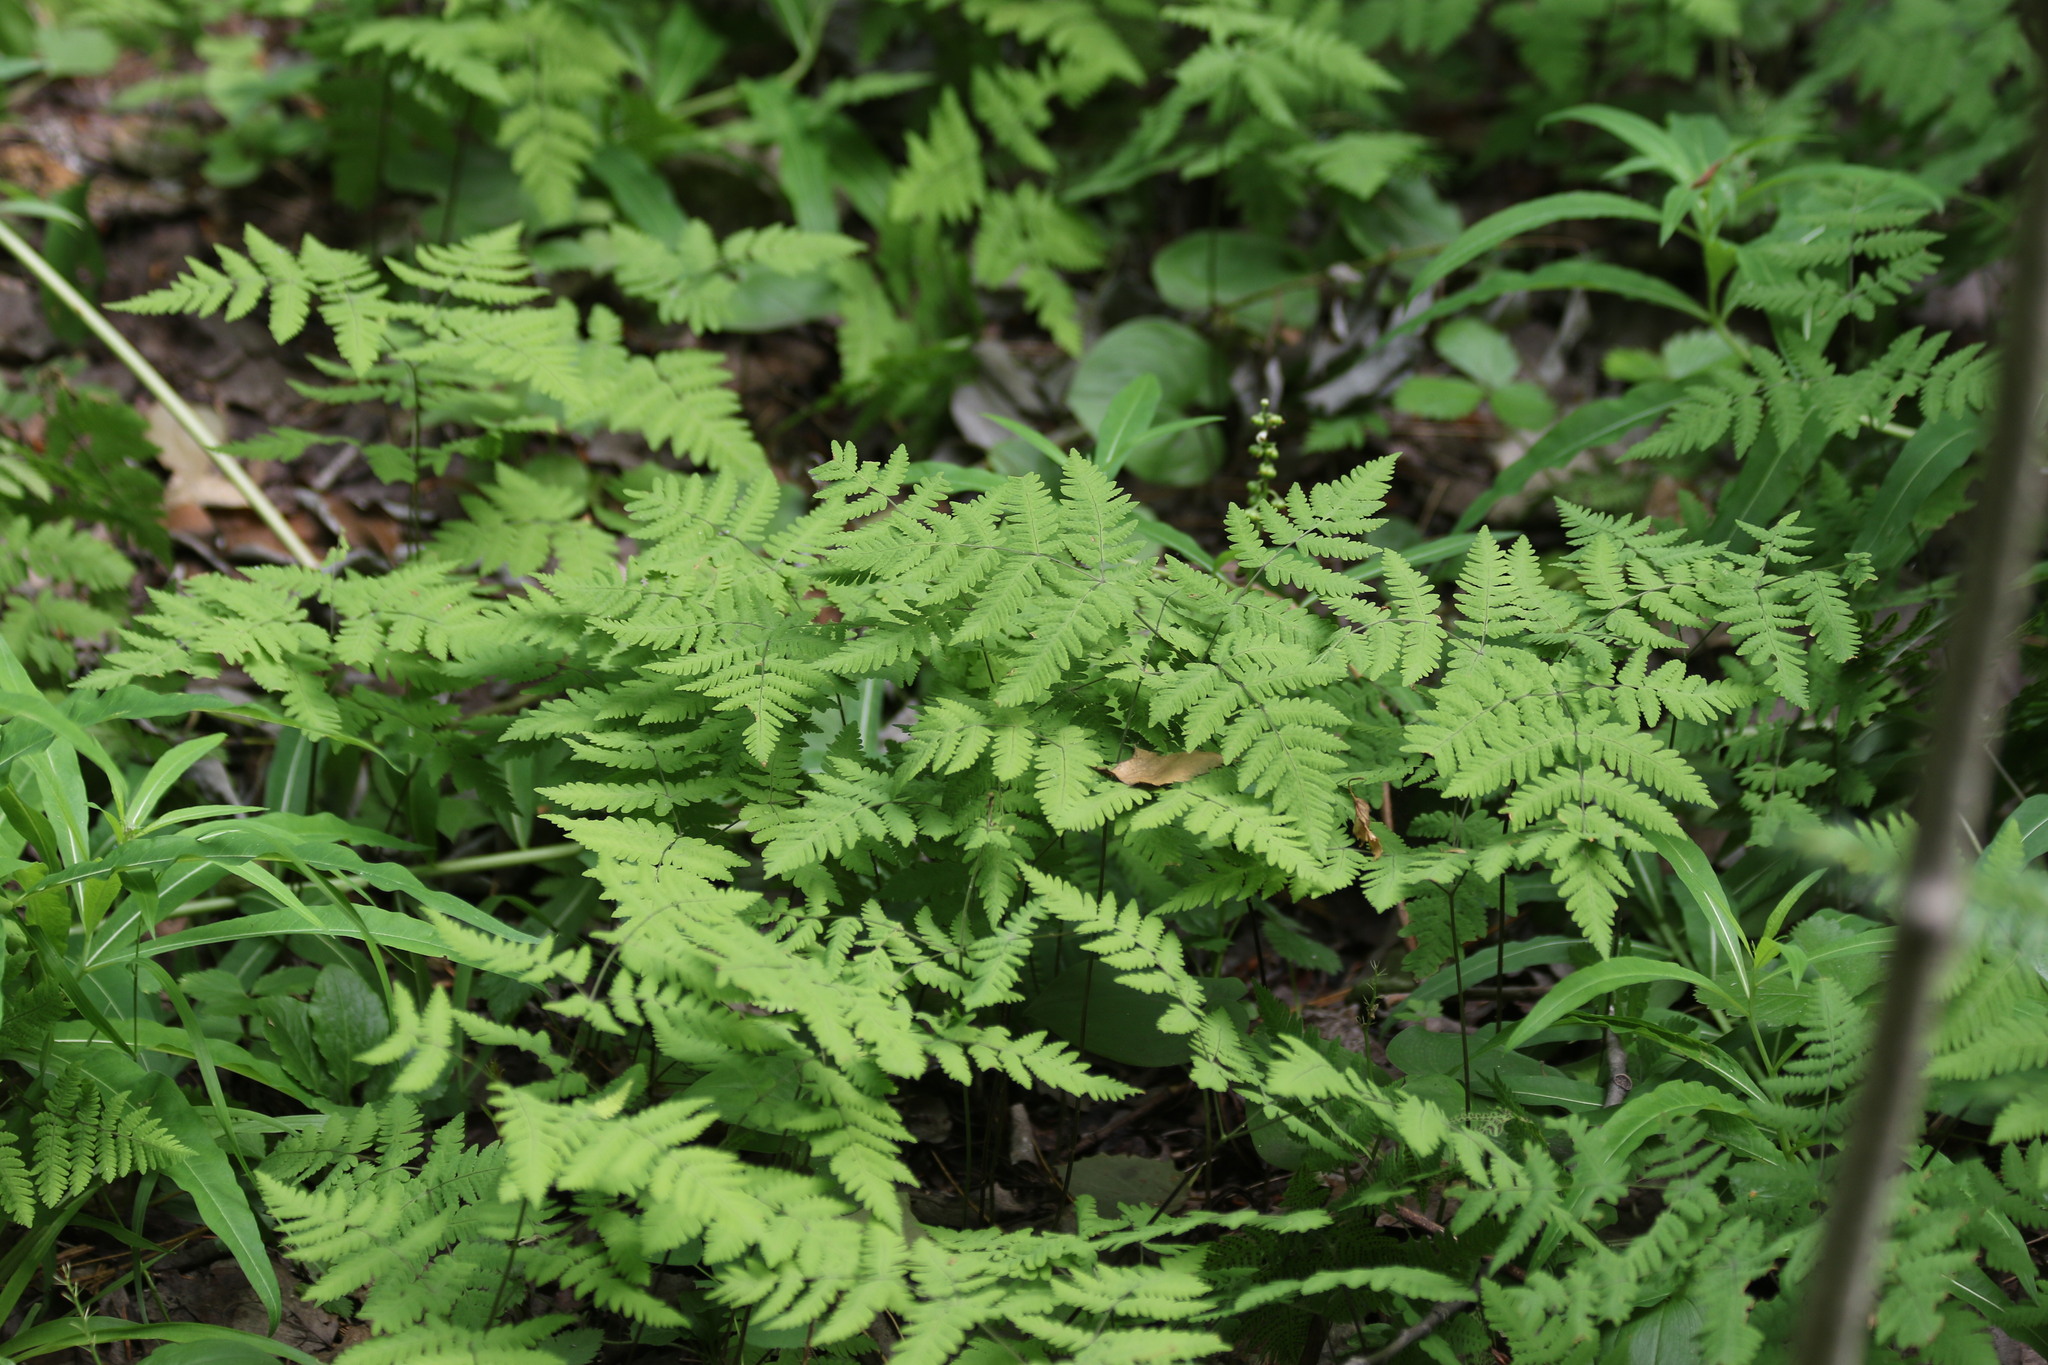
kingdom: Plantae
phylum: Tracheophyta
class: Polypodiopsida
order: Polypodiales
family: Cystopteridaceae
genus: Gymnocarpium
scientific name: Gymnocarpium dryopteris
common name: Oak fern
